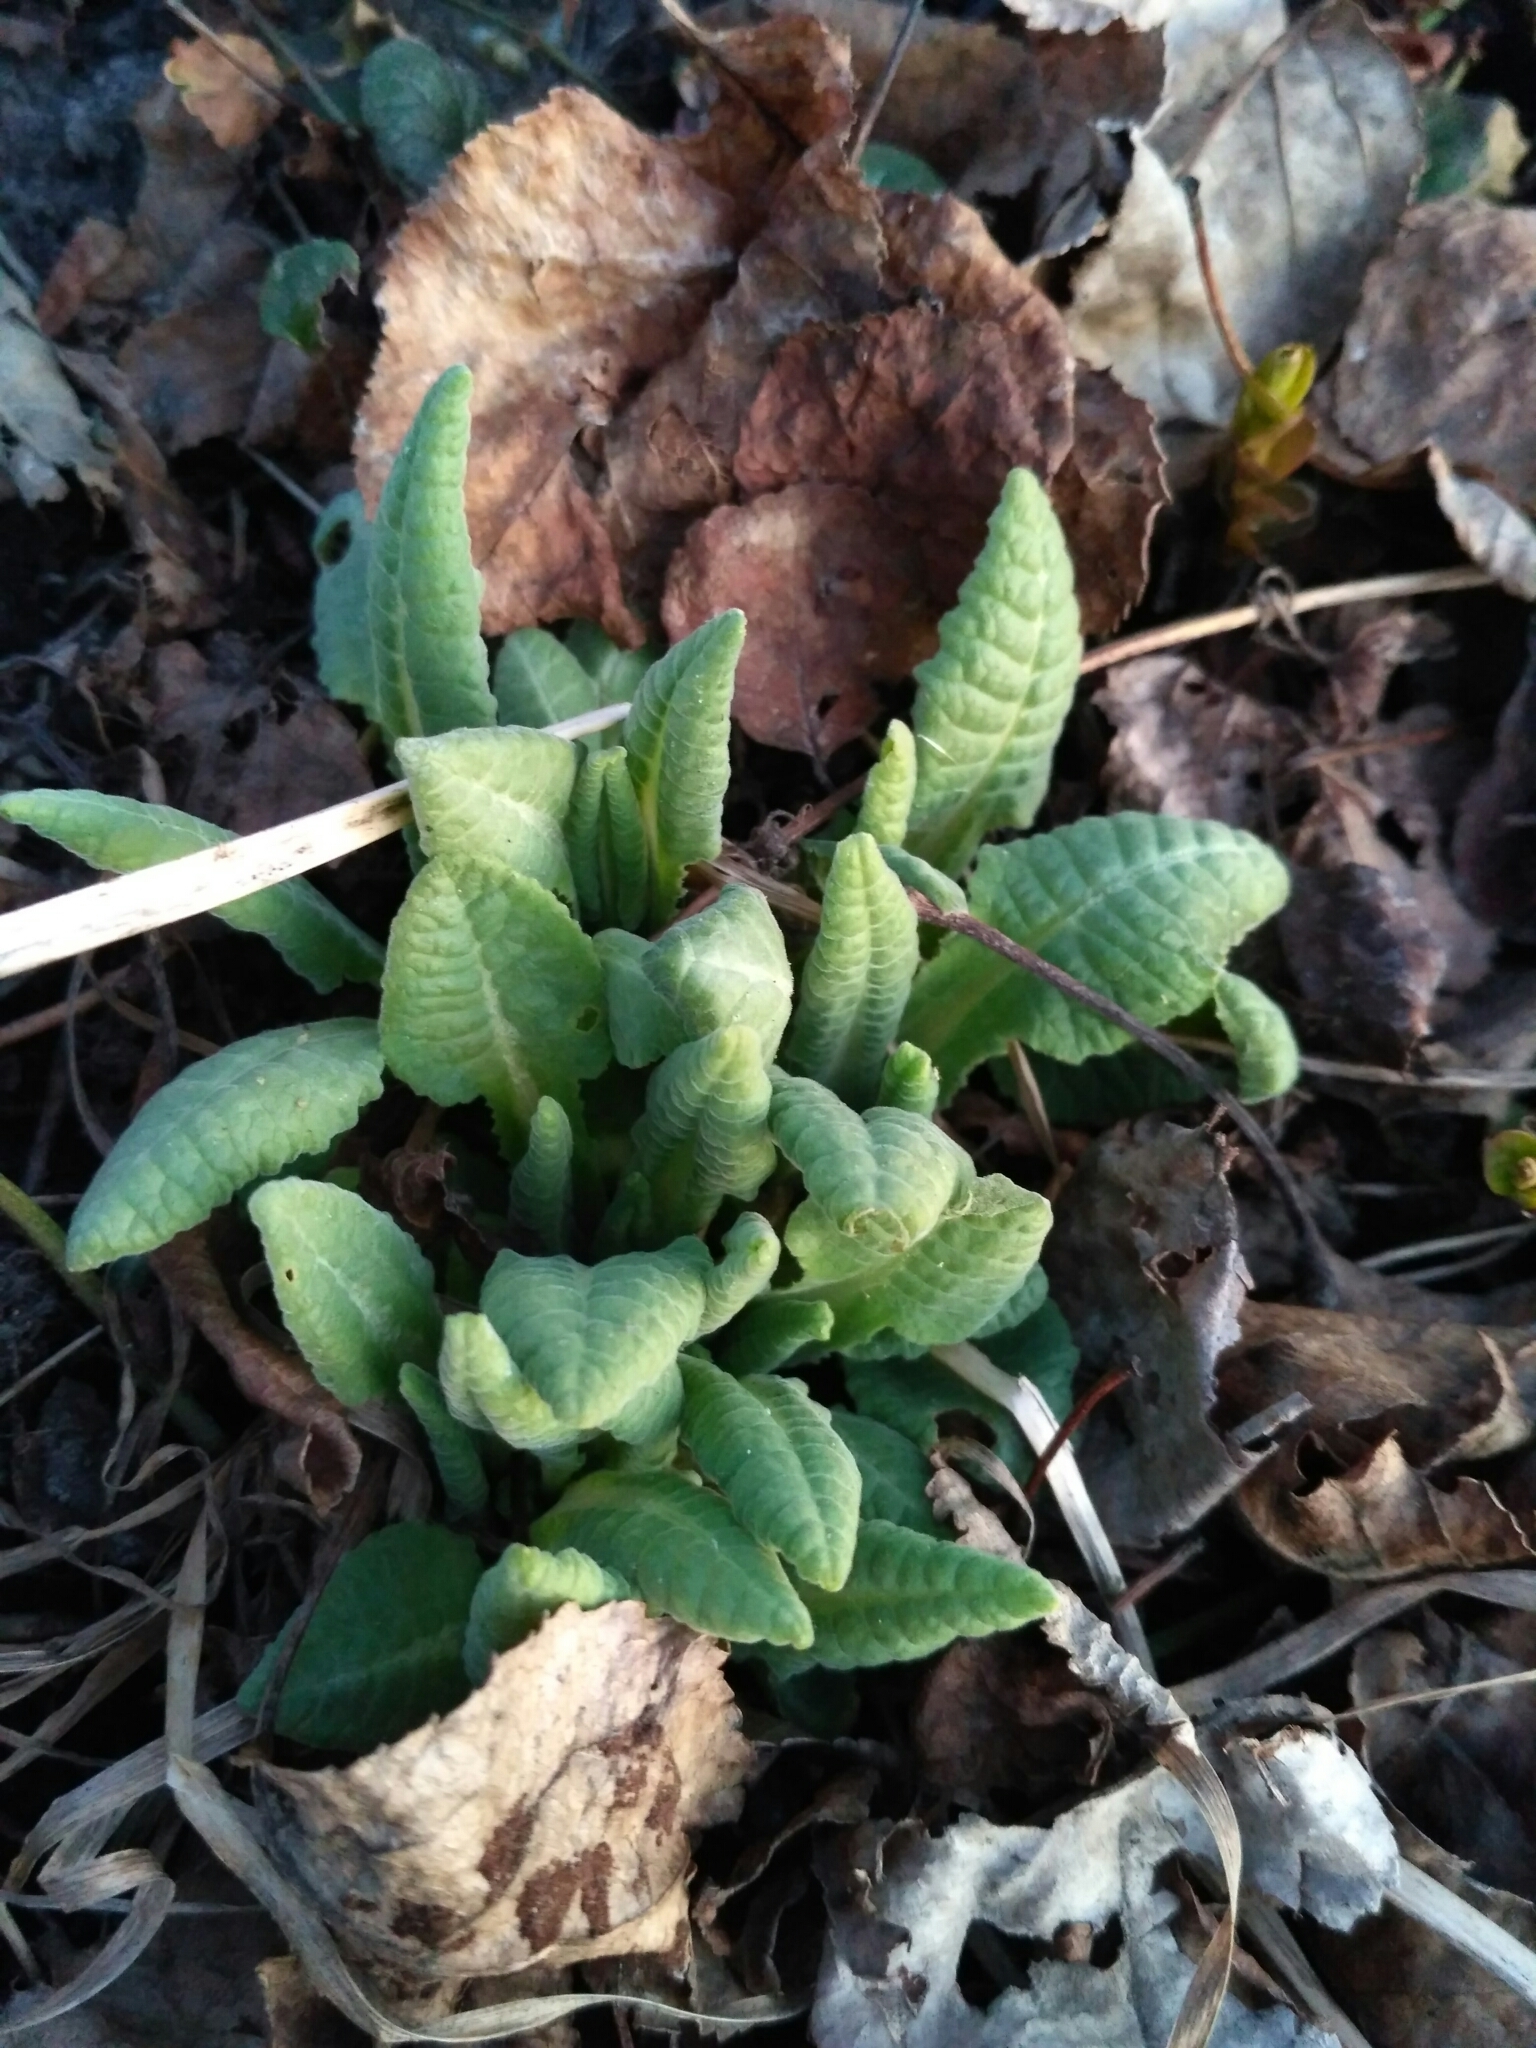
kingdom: Plantae
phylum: Tracheophyta
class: Magnoliopsida
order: Ericales
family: Primulaceae
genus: Primula
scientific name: Primula veris
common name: Cowslip
